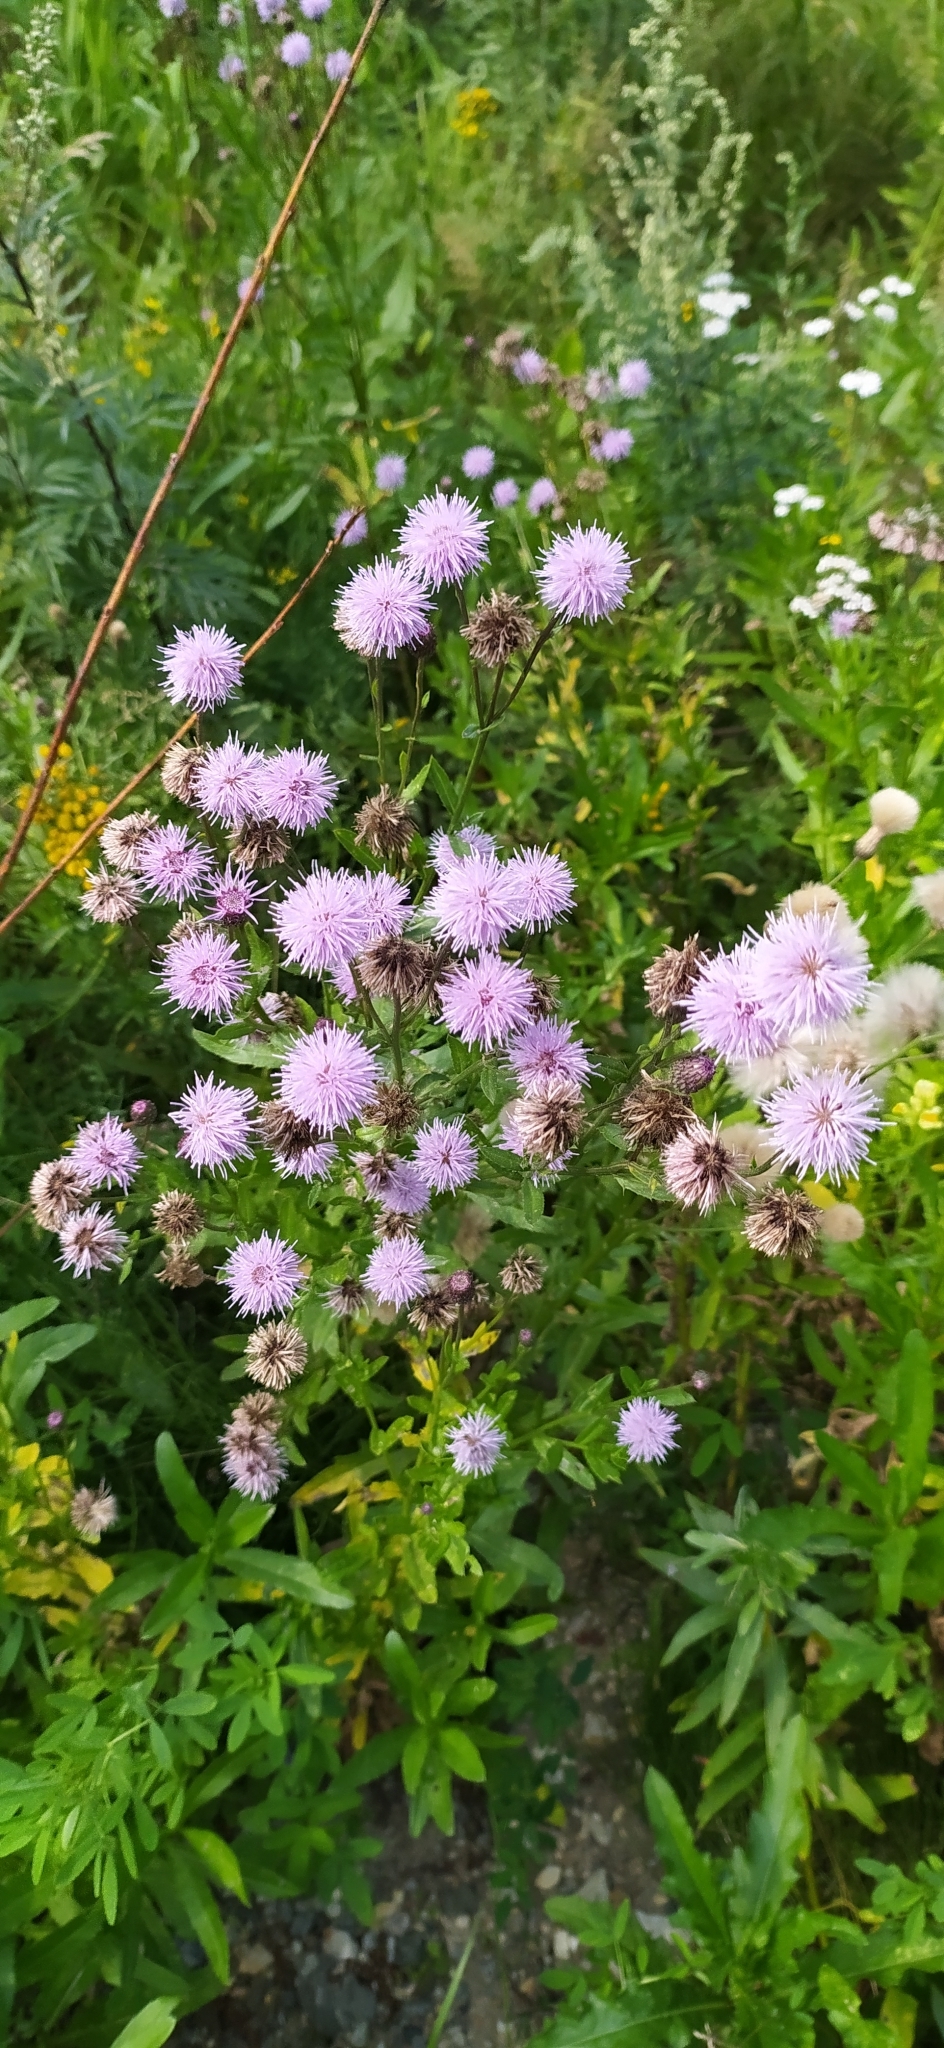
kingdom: Plantae
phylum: Tracheophyta
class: Magnoliopsida
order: Asterales
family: Asteraceae
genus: Cirsium
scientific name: Cirsium arvense
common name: Creeping thistle
